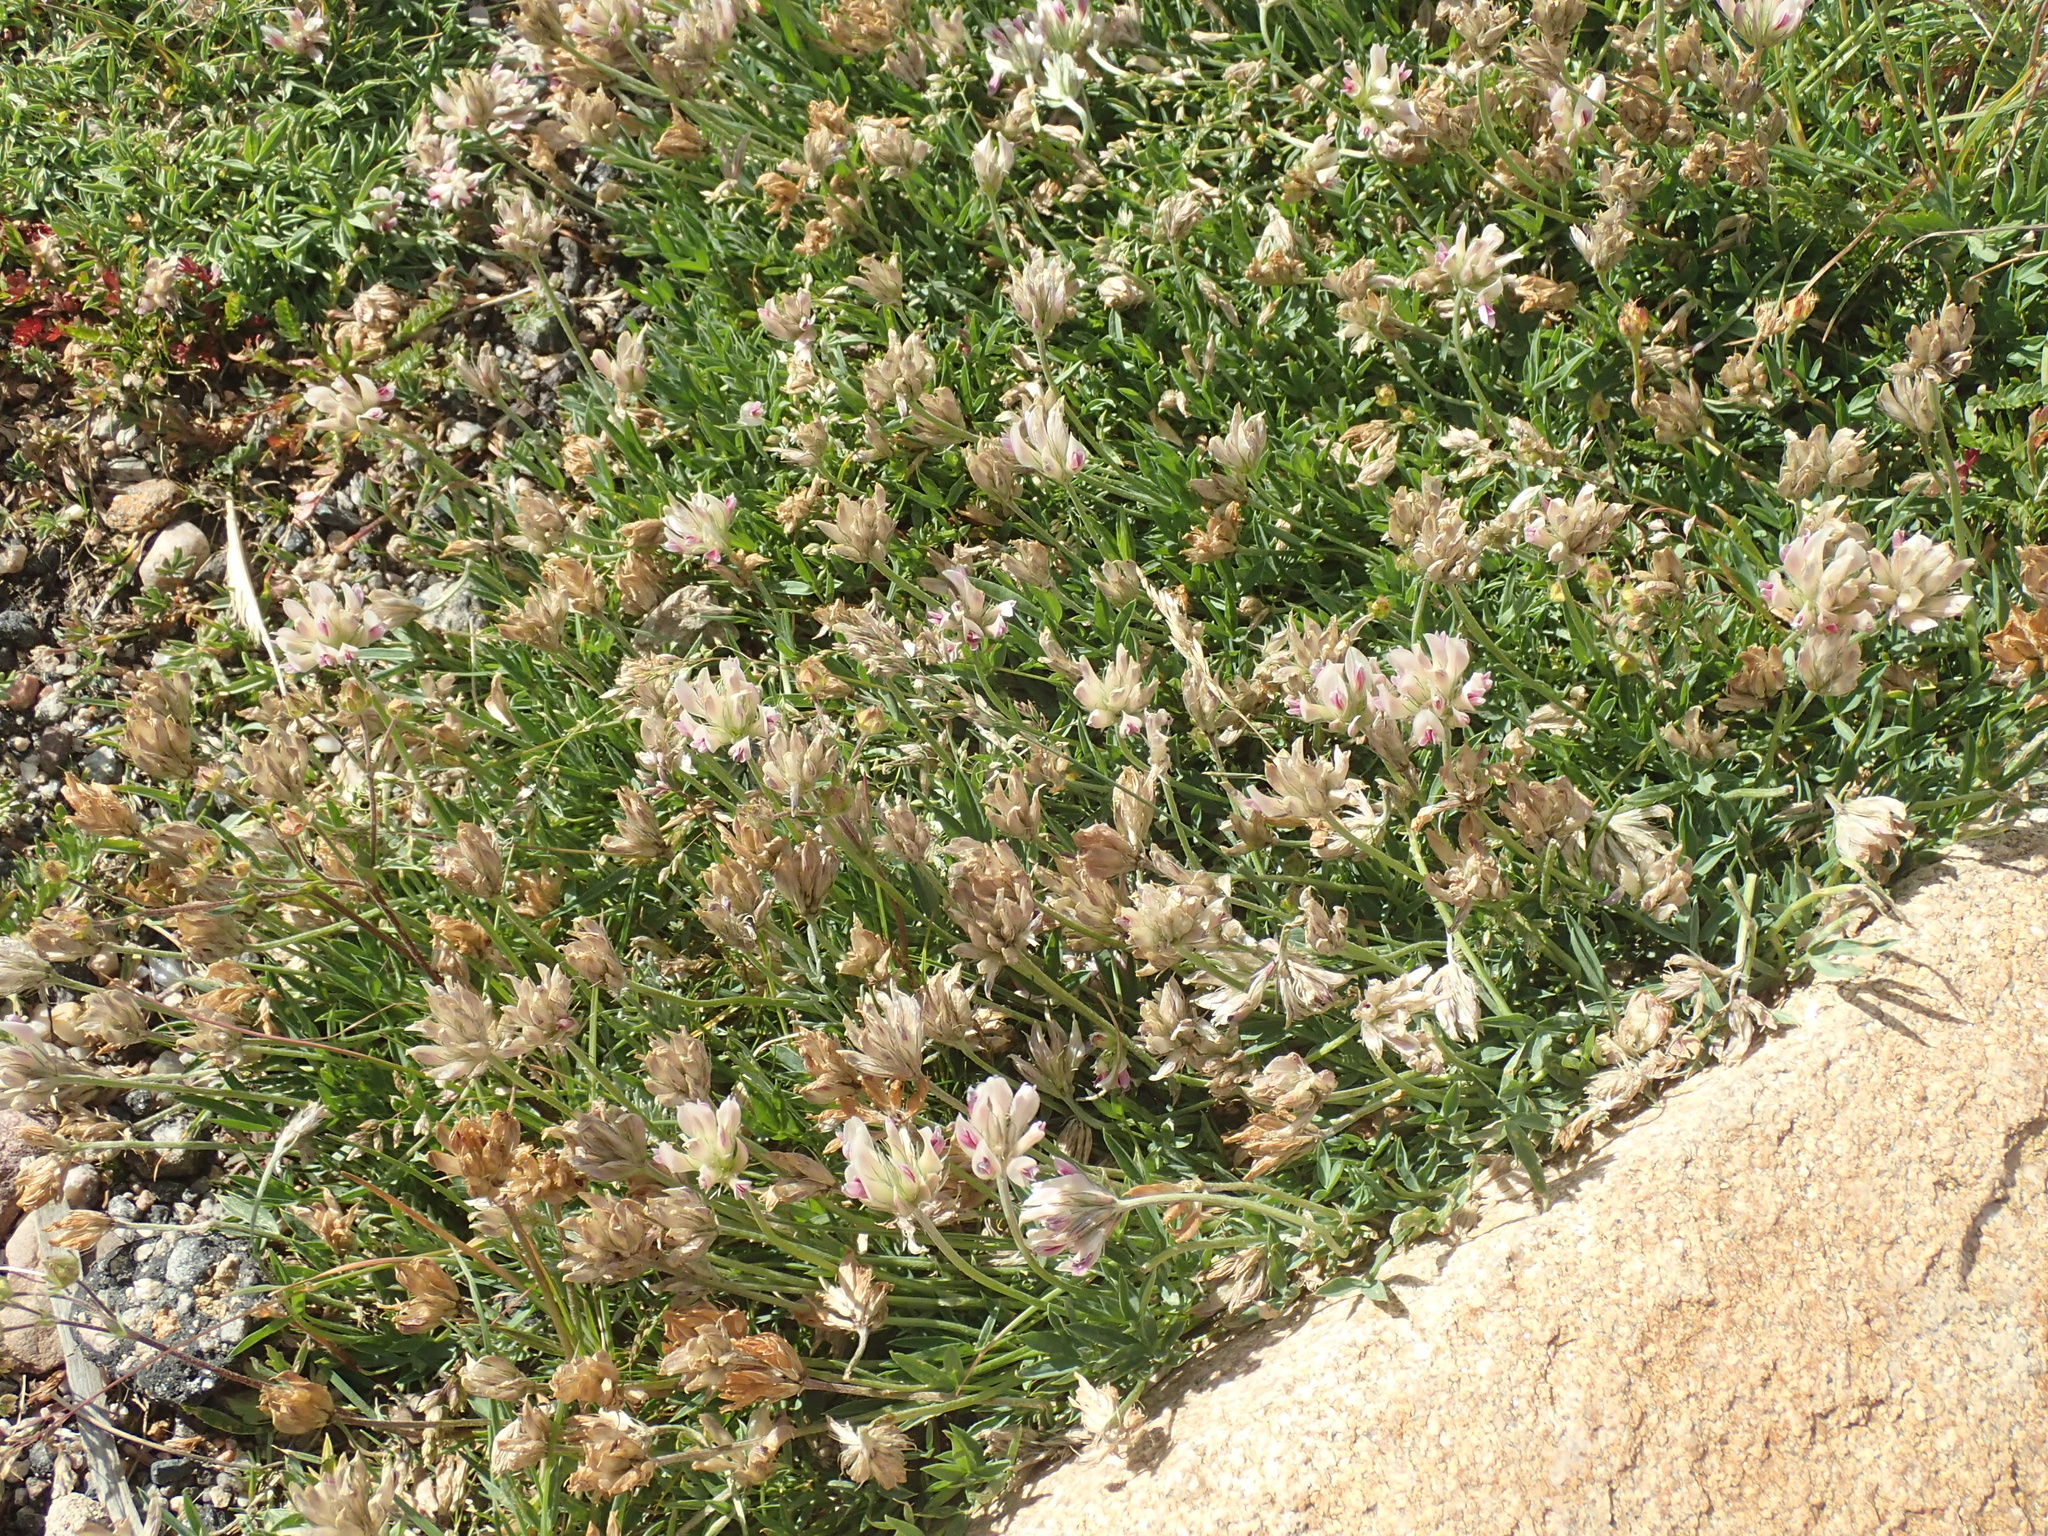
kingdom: Plantae
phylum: Tracheophyta
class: Magnoliopsida
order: Fabales
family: Fabaceae
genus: Trifolium
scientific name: Trifolium dasyphyllum
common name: Whip-root clover
